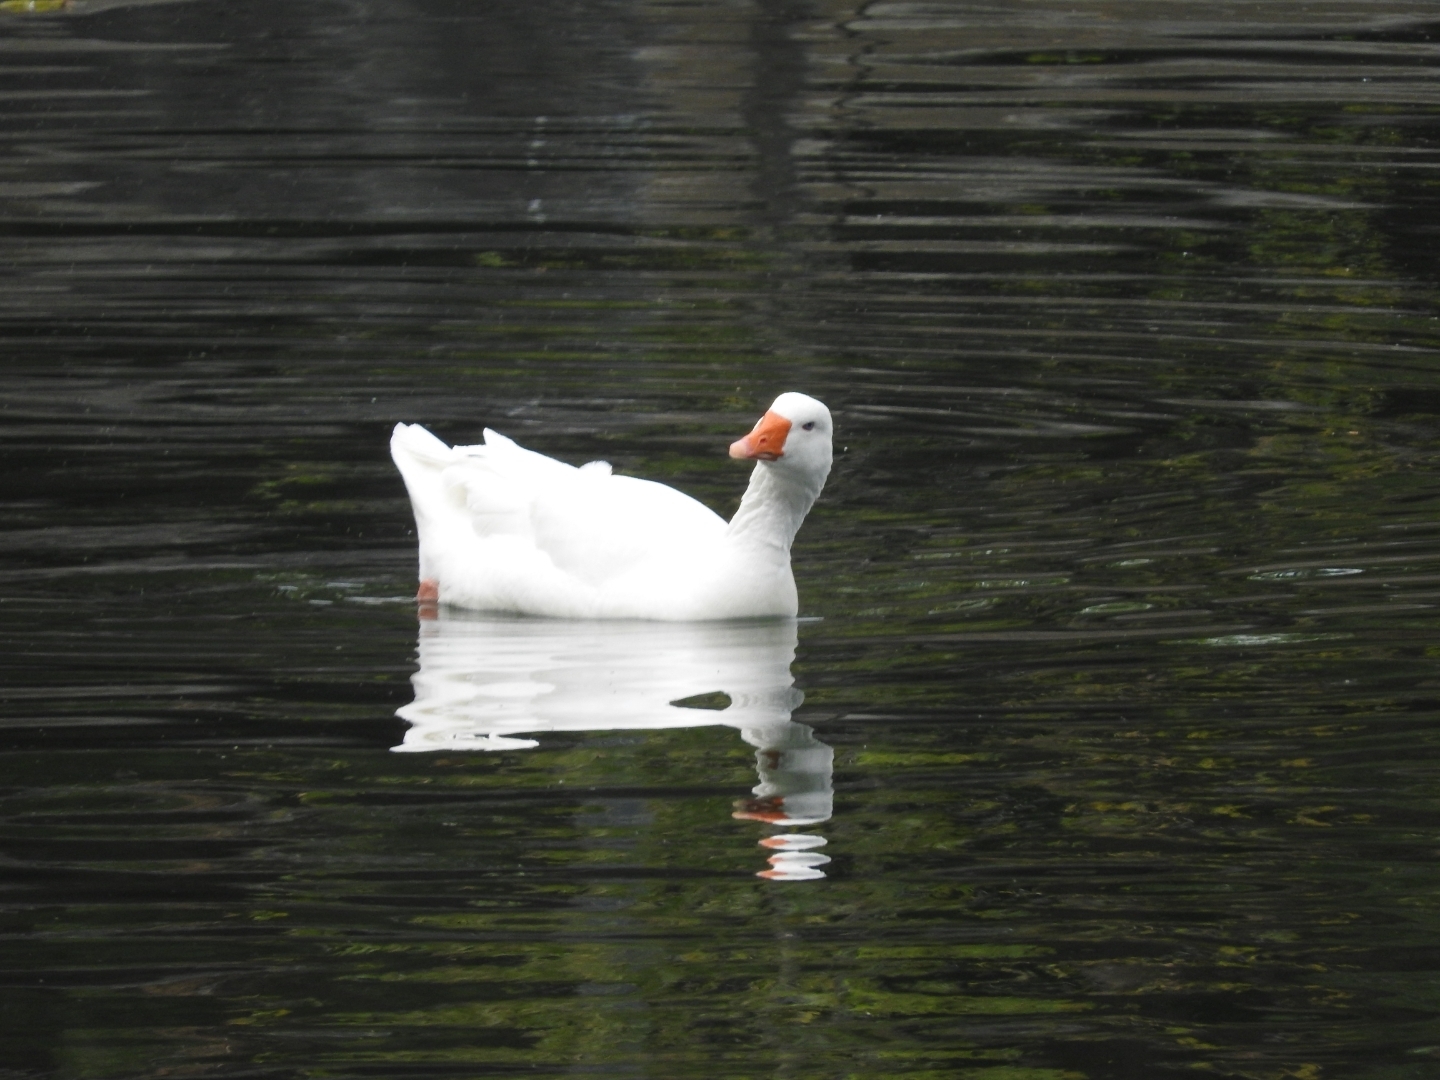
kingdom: Animalia
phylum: Chordata
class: Aves
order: Anseriformes
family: Anatidae
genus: Anser
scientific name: Anser anser
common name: Greylag goose
